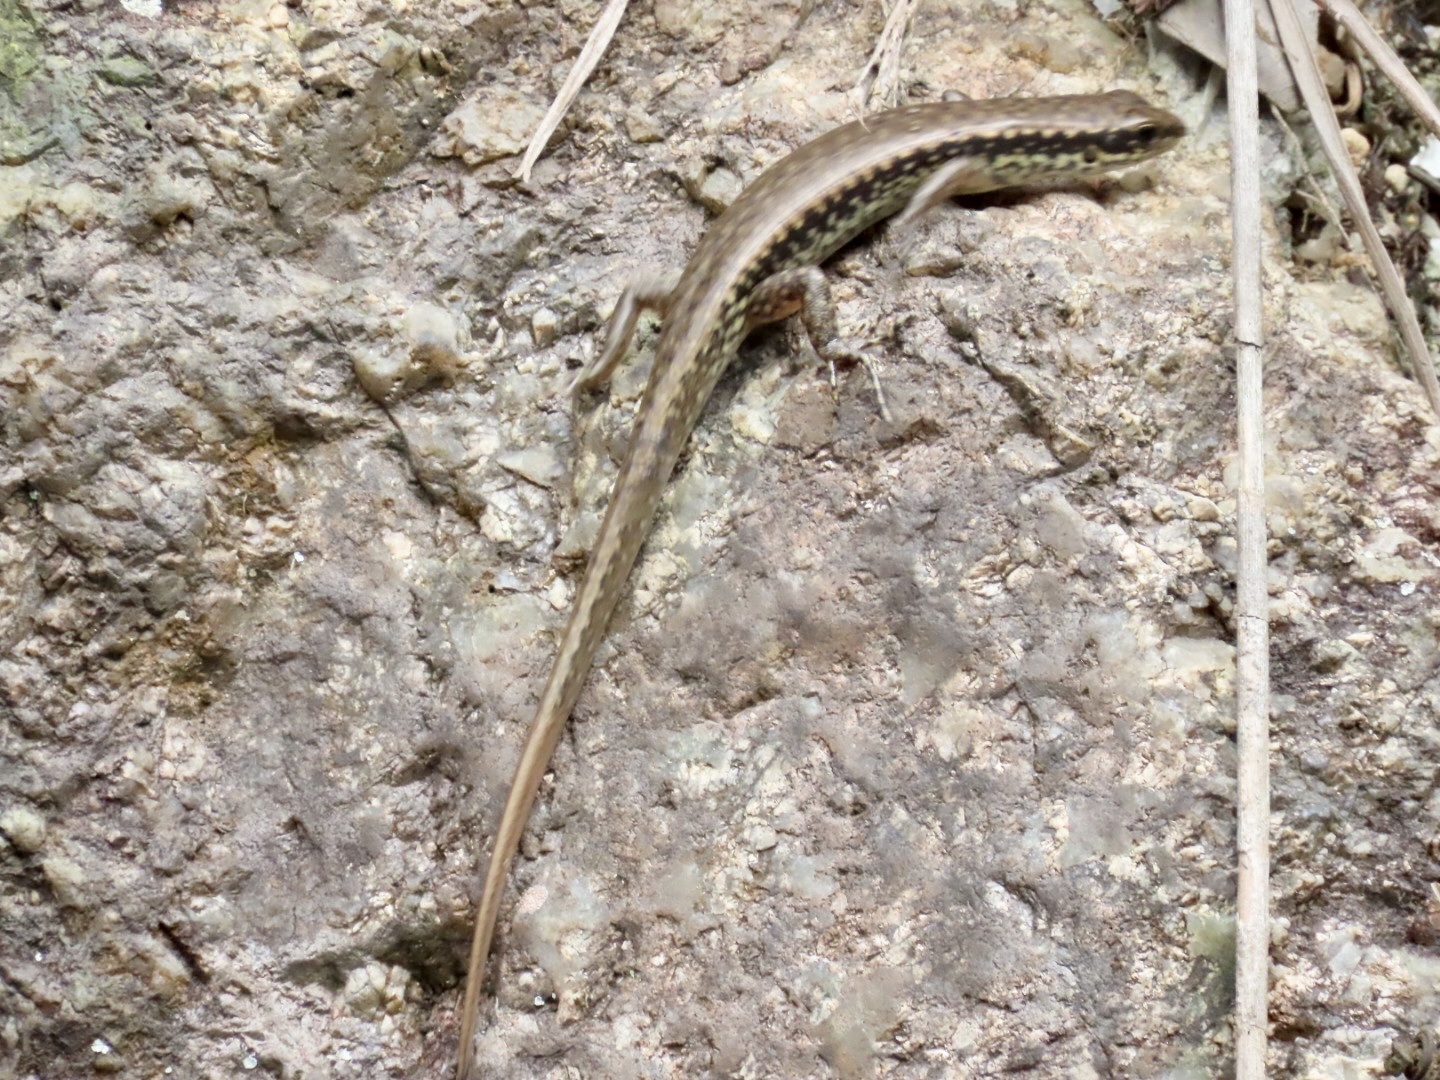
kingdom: Animalia
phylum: Chordata
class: Squamata
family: Scincidae
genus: Sphenomorphus
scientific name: Sphenomorphus incognitus
